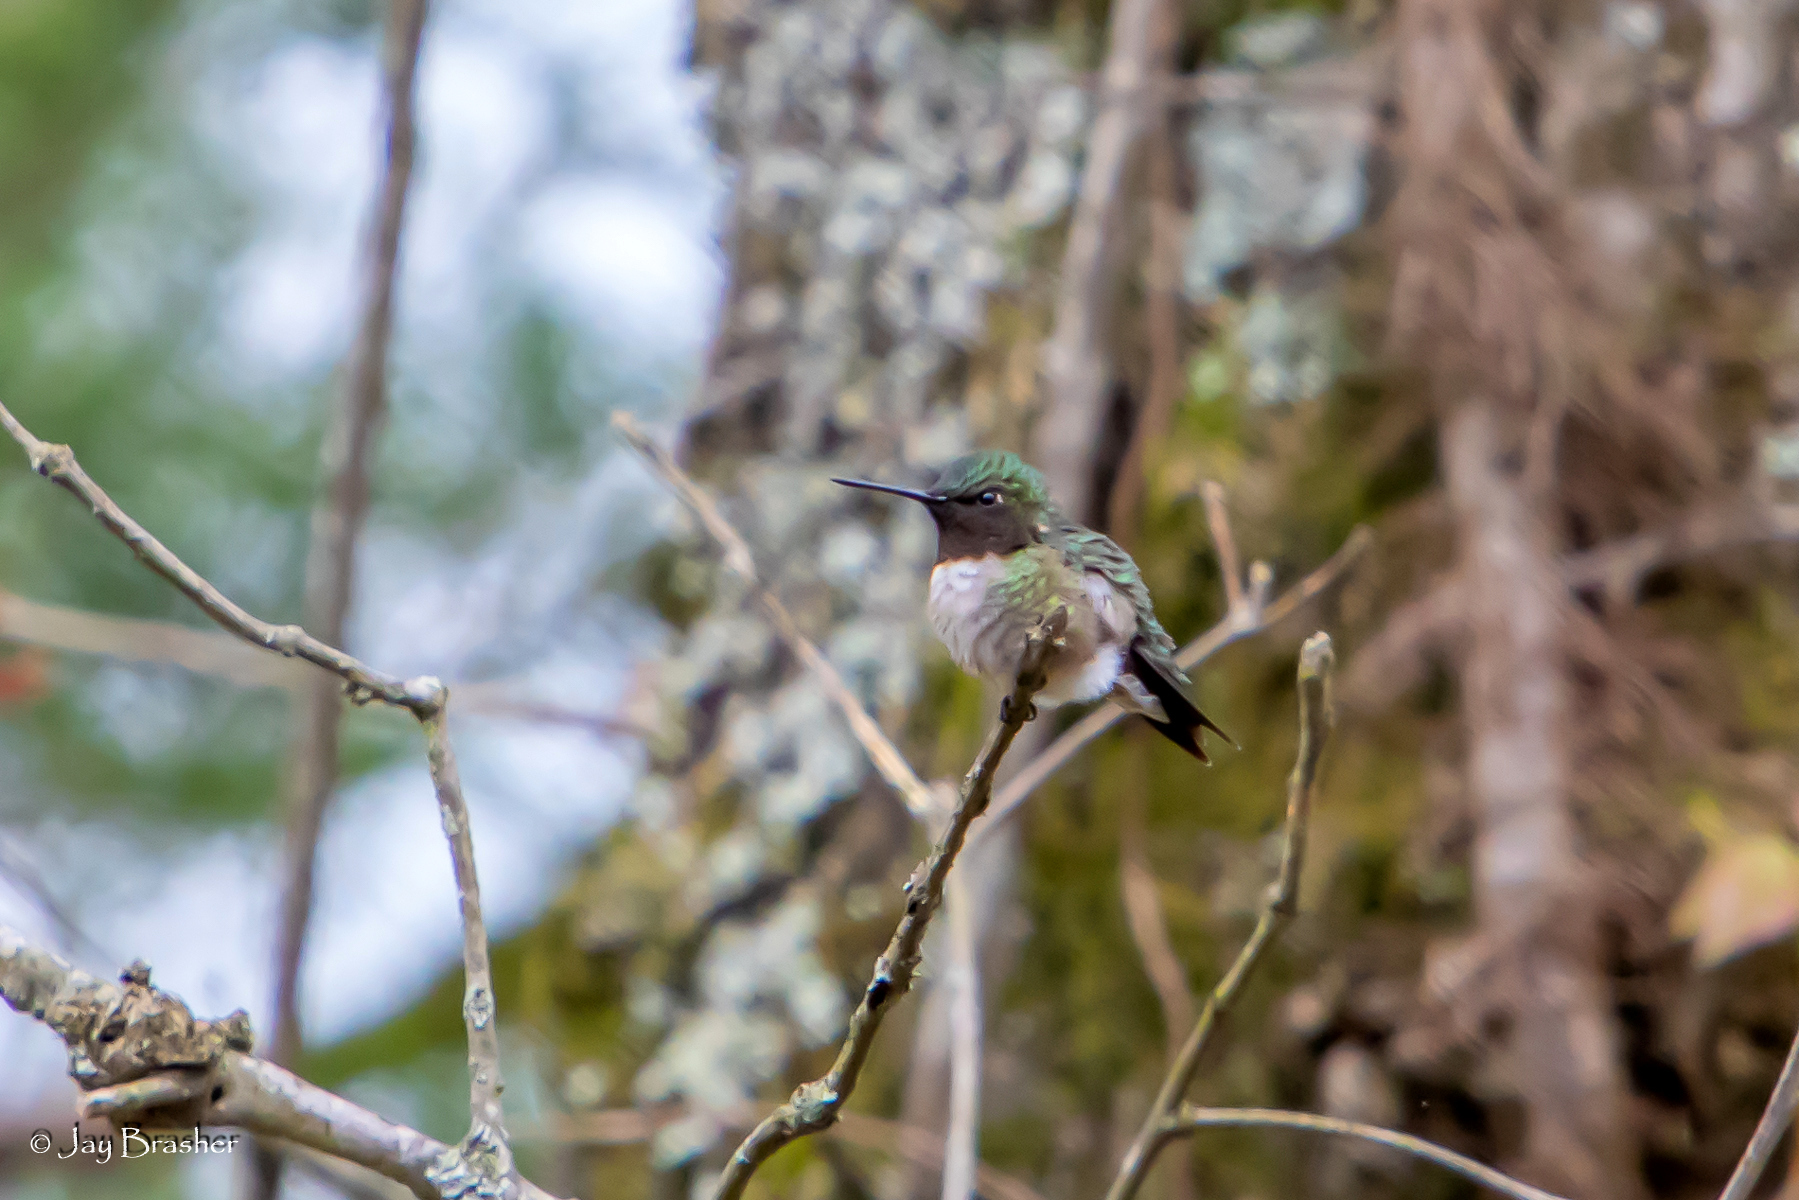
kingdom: Animalia
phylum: Chordata
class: Aves
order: Apodiformes
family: Trochilidae
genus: Archilochus
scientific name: Archilochus colubris
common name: Ruby-throated hummingbird
